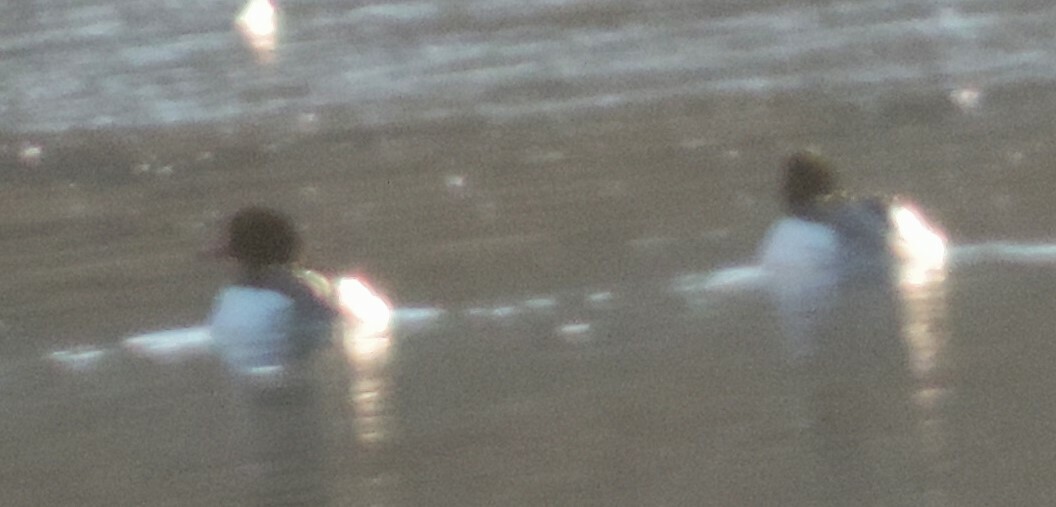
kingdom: Animalia
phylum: Chordata
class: Aves
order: Anseriformes
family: Anatidae
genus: Mergus
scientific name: Mergus merganser
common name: Common merganser
